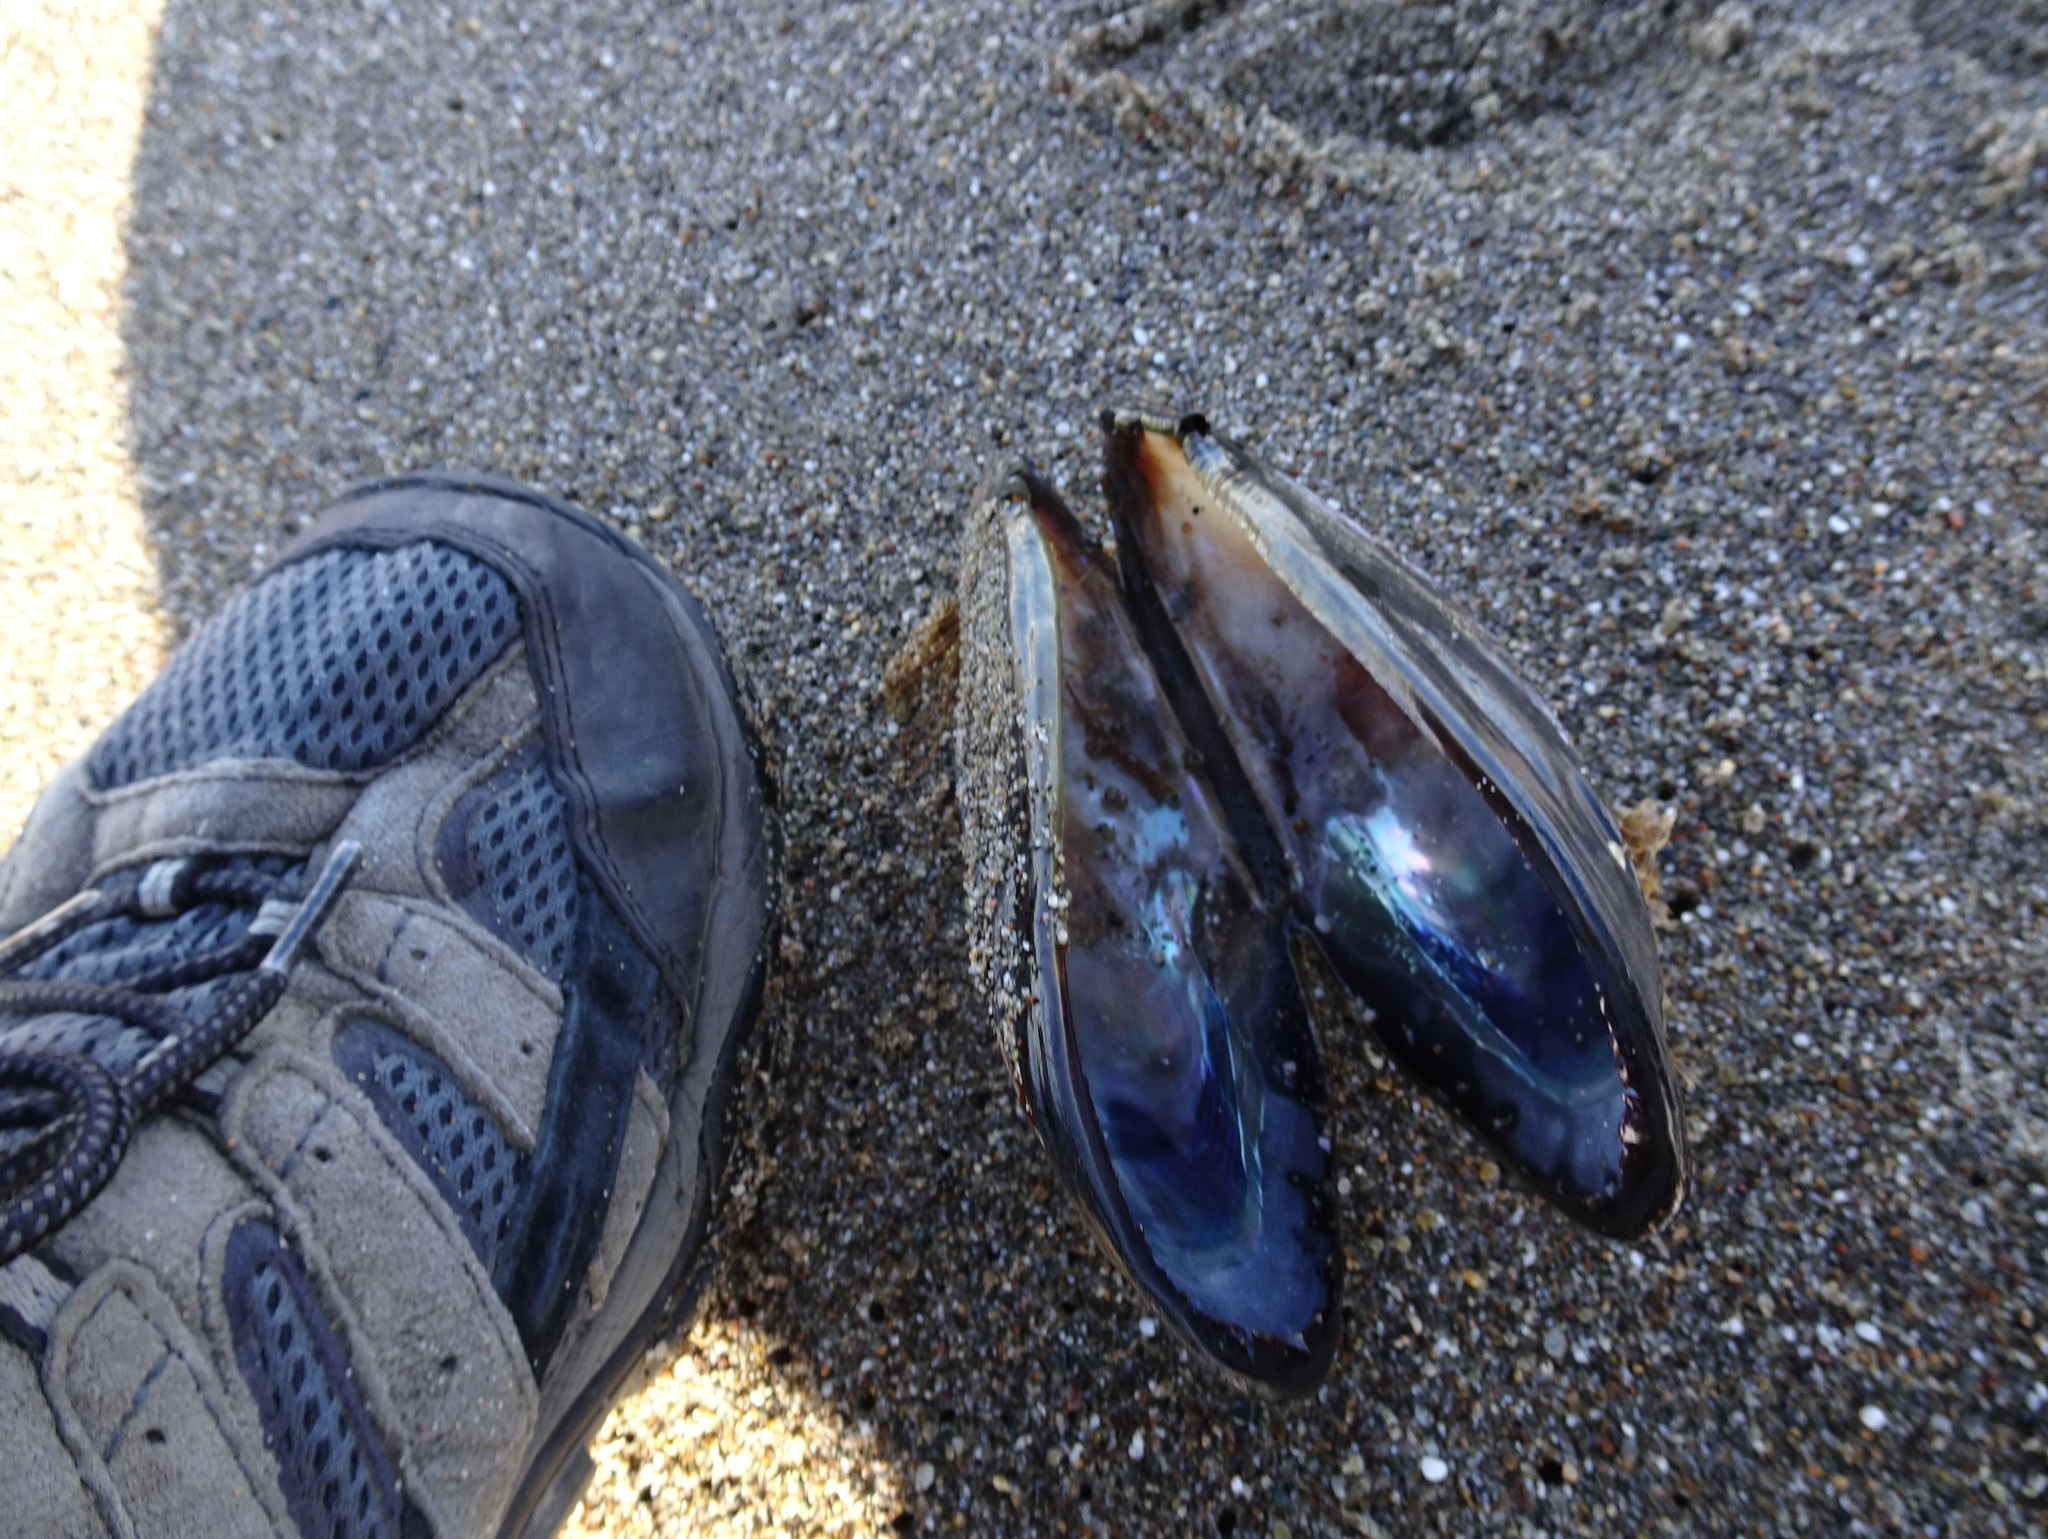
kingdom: Animalia
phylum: Mollusca
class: Bivalvia
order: Mytilida
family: Mytilidae
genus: Mytilus
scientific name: Mytilus californianus
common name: California mussel
